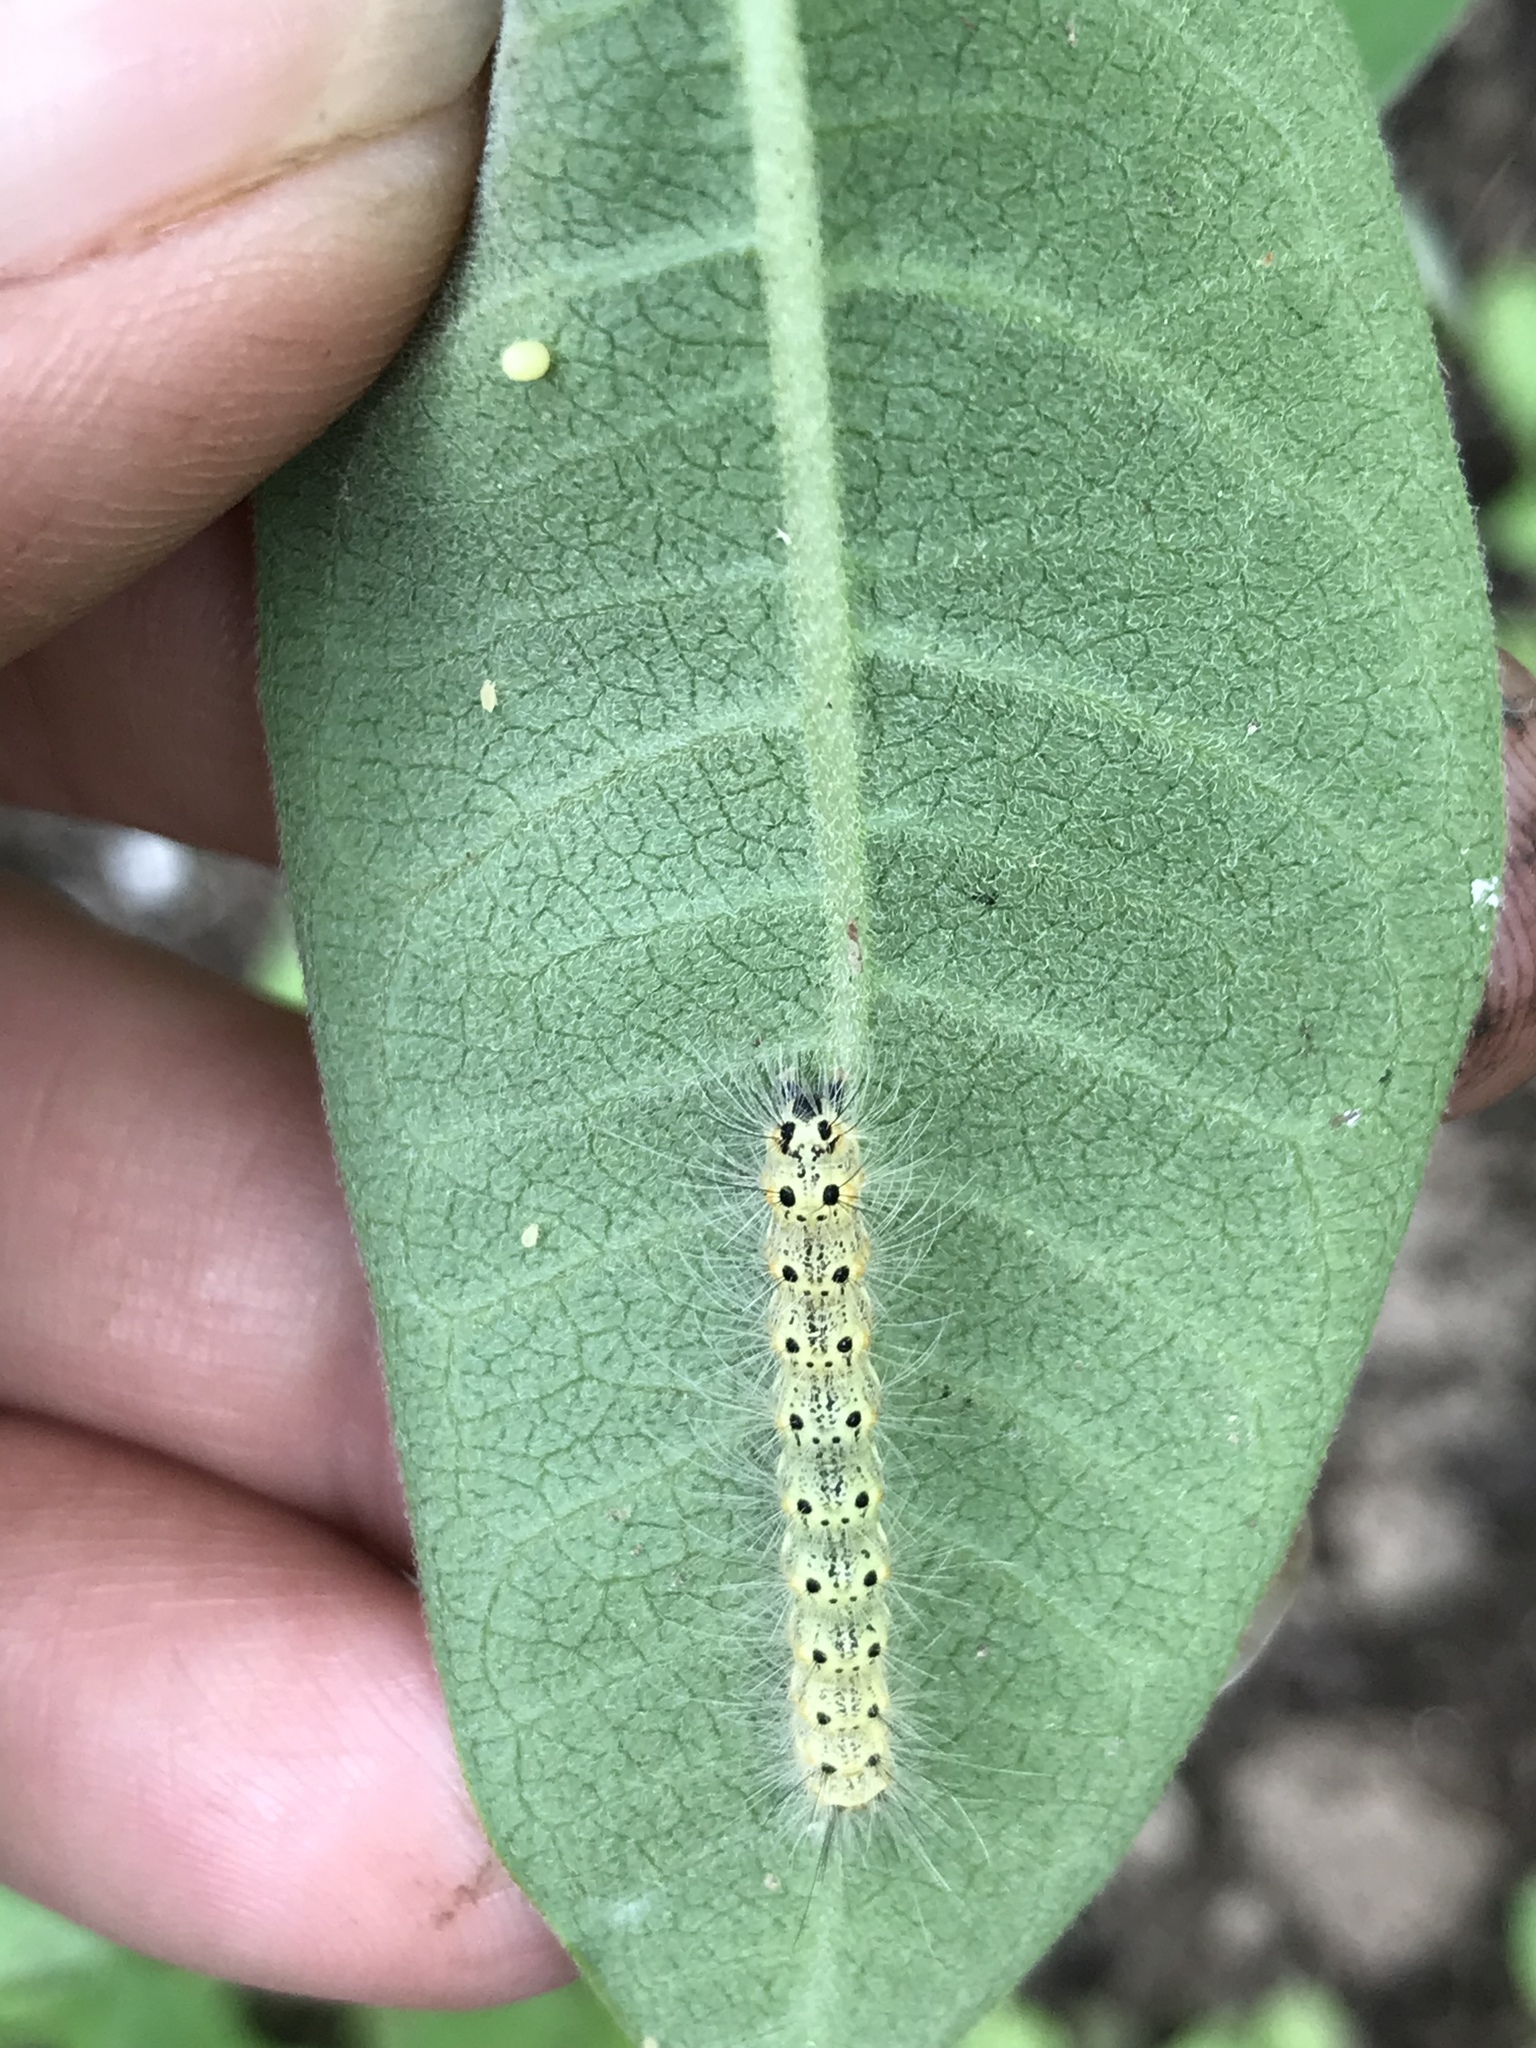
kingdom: Animalia
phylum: Arthropoda
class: Insecta
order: Lepidoptera
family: Erebidae
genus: Hyphantria
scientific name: Hyphantria cunea
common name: American white moth
